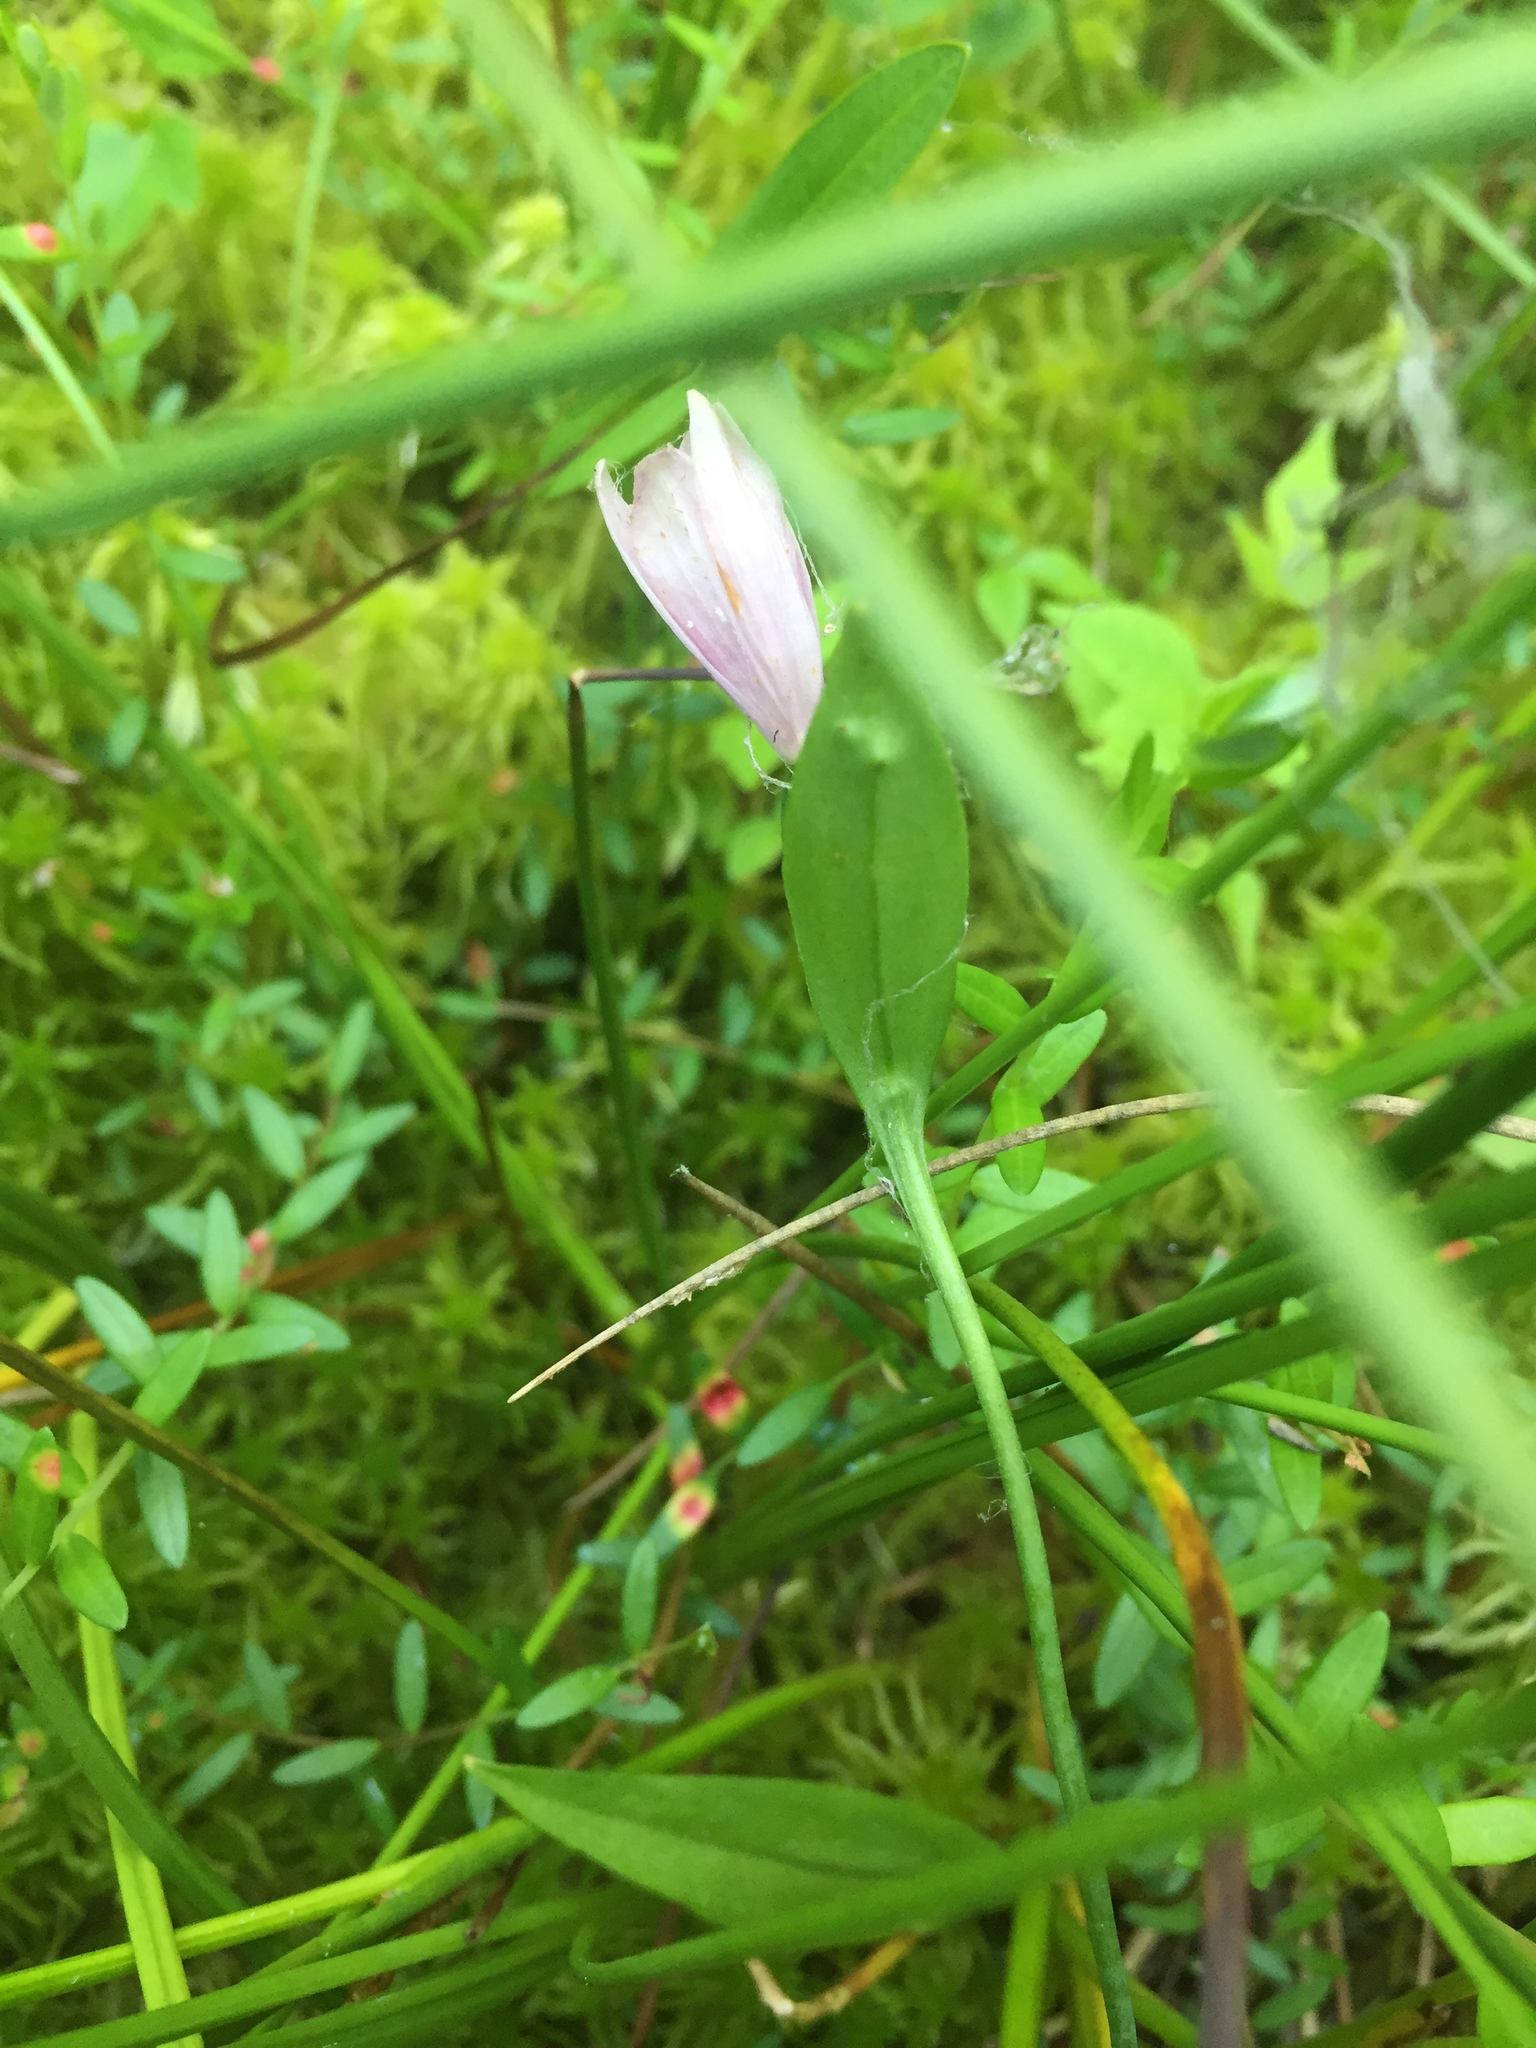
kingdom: Plantae
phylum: Tracheophyta
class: Liliopsida
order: Asparagales
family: Orchidaceae
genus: Pogonia
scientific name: Pogonia ophioglossoides
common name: Rose pogonia
